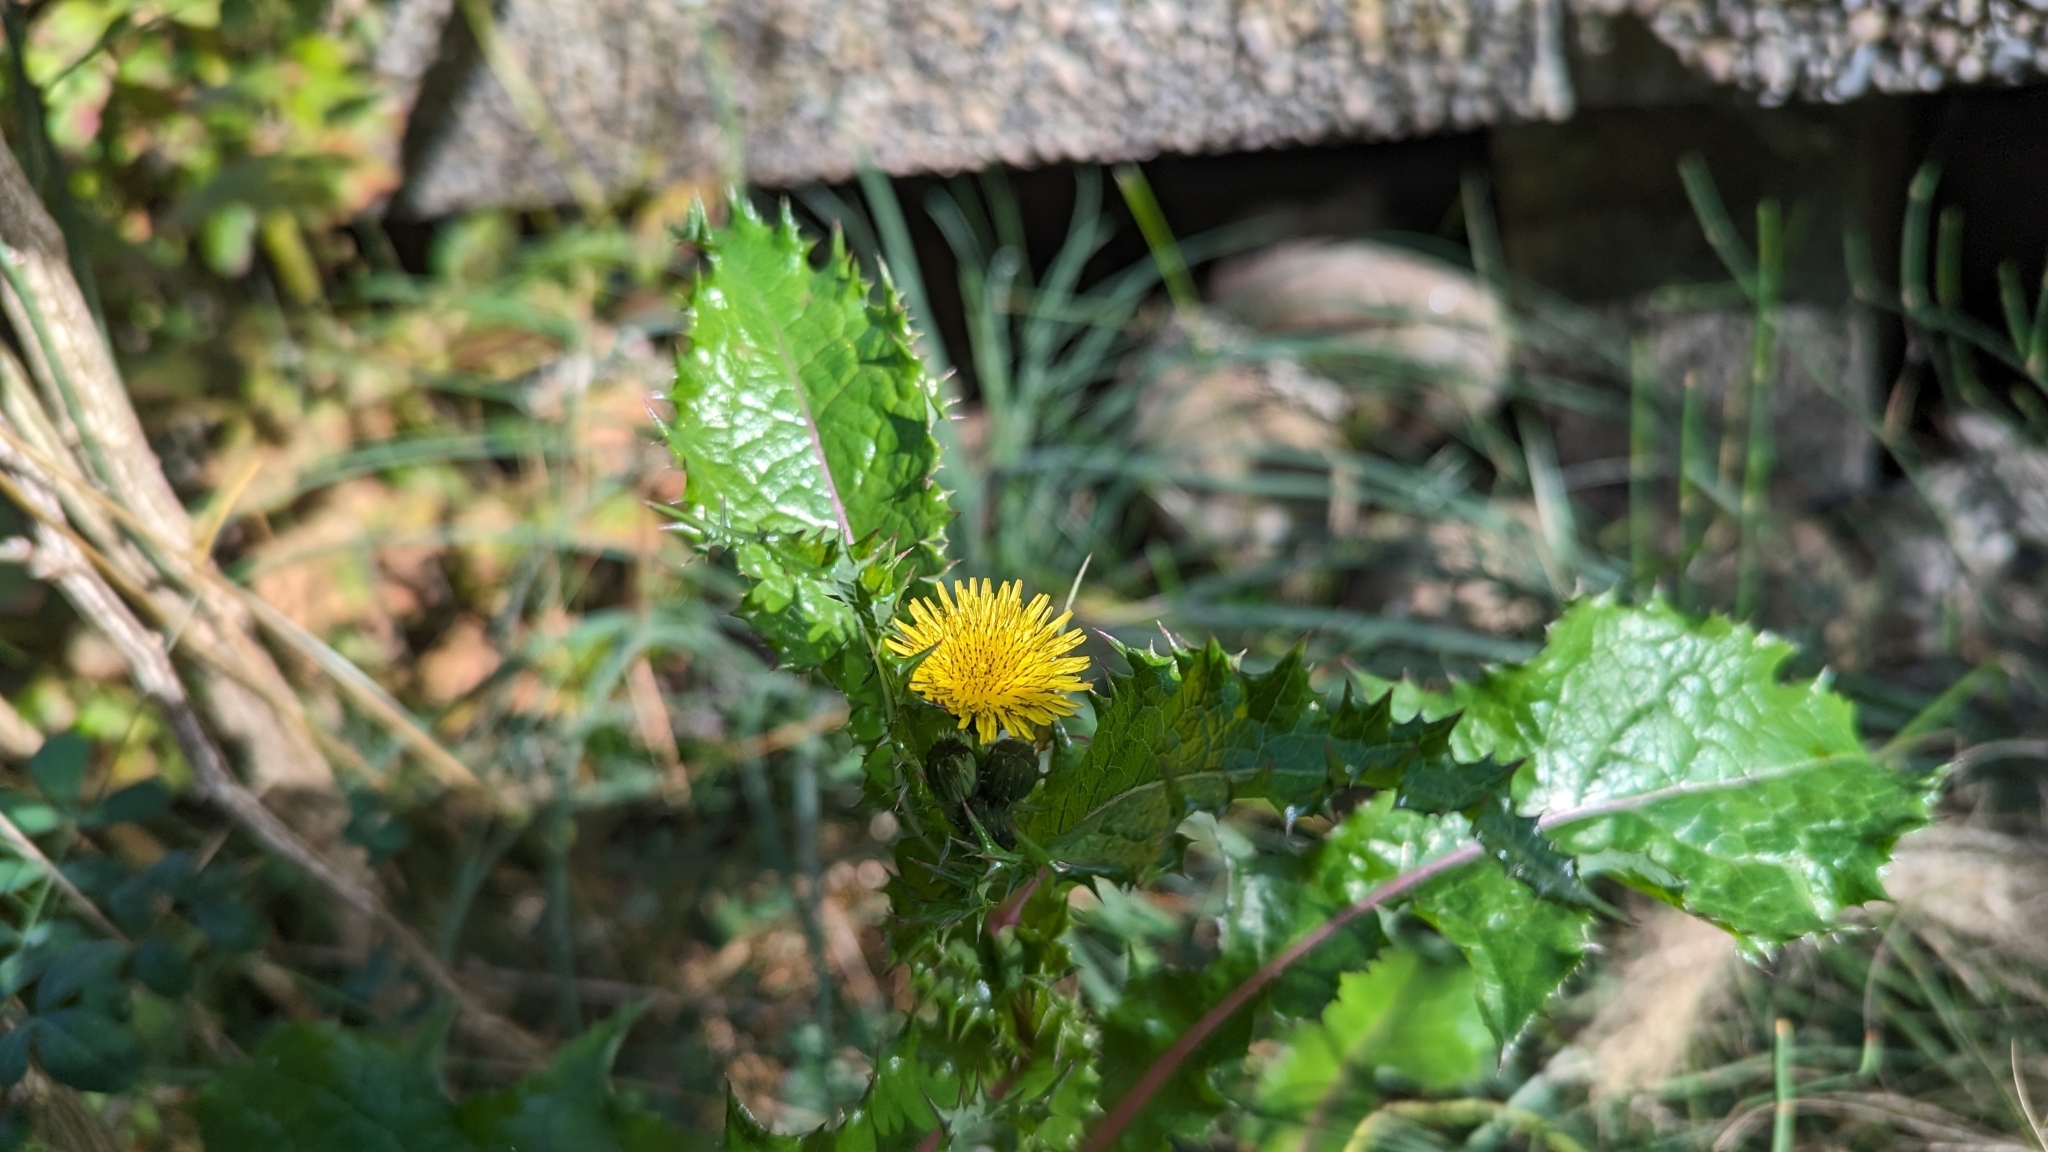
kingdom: Plantae
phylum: Tracheophyta
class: Magnoliopsida
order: Asterales
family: Asteraceae
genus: Sonchus
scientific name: Sonchus asper
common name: Prickly sow-thistle
